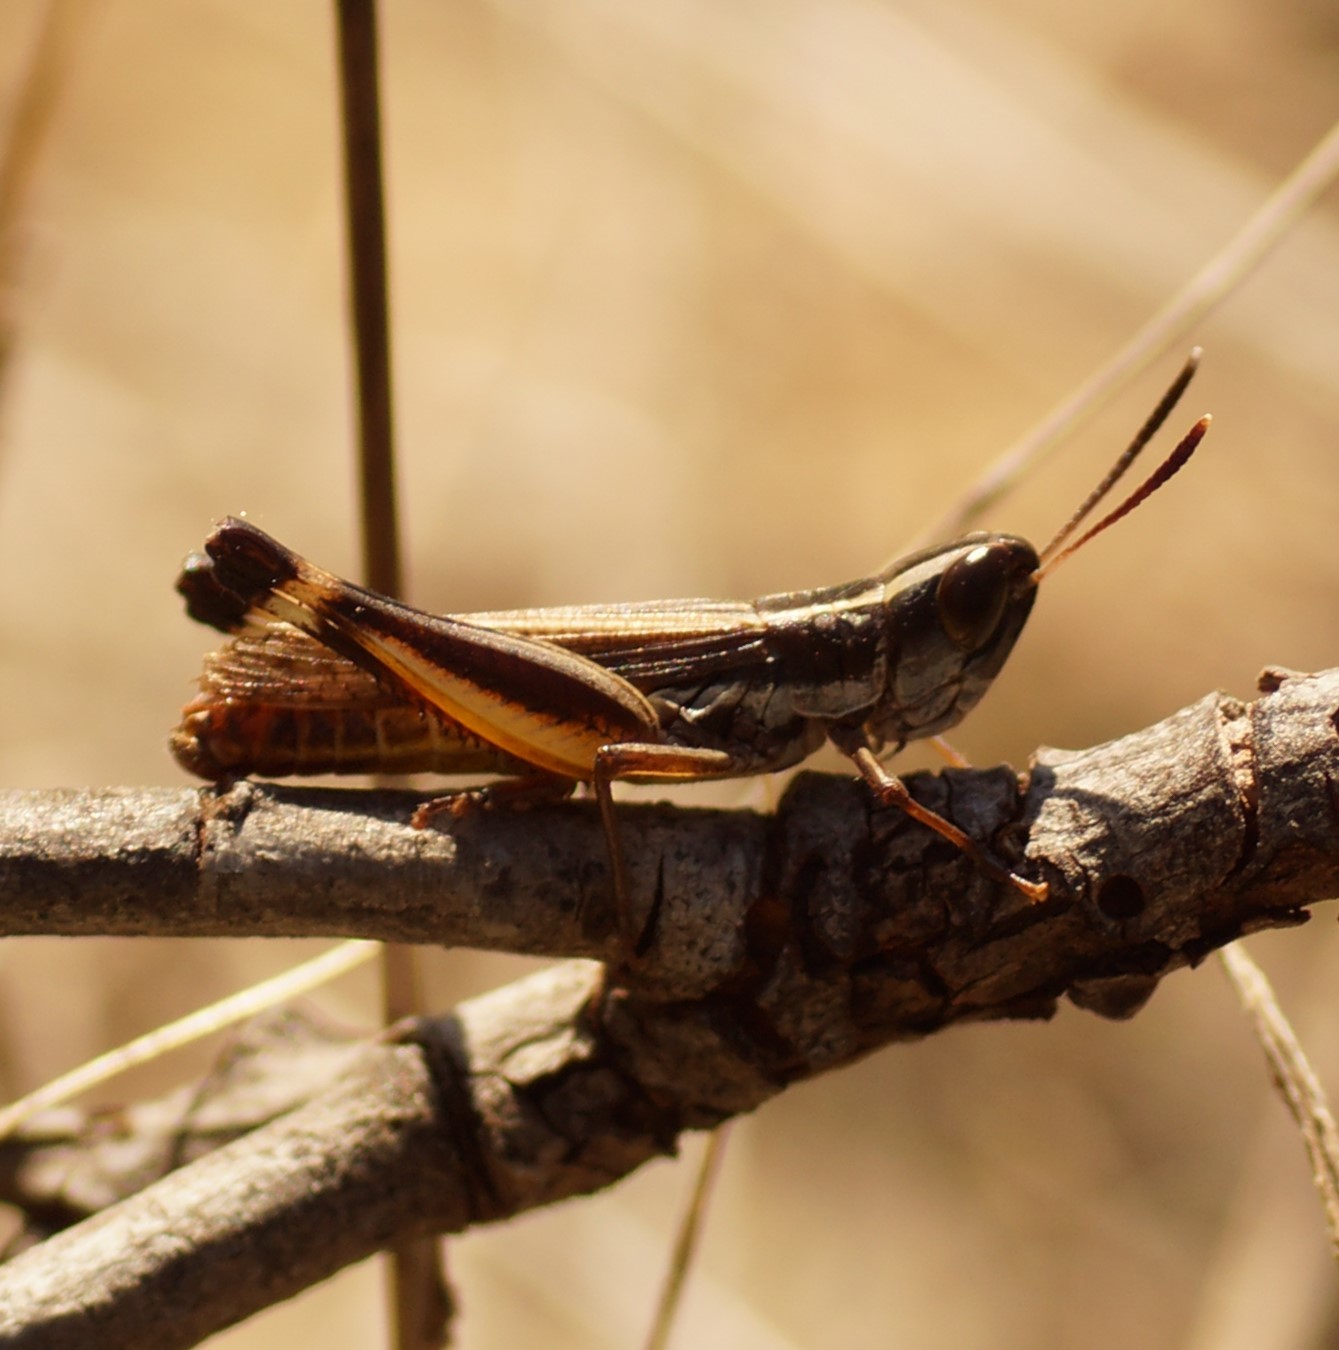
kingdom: Animalia
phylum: Arthropoda
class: Insecta
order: Orthoptera
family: Acrididae
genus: Macrotona
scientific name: Macrotona australis
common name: Common macrotona
